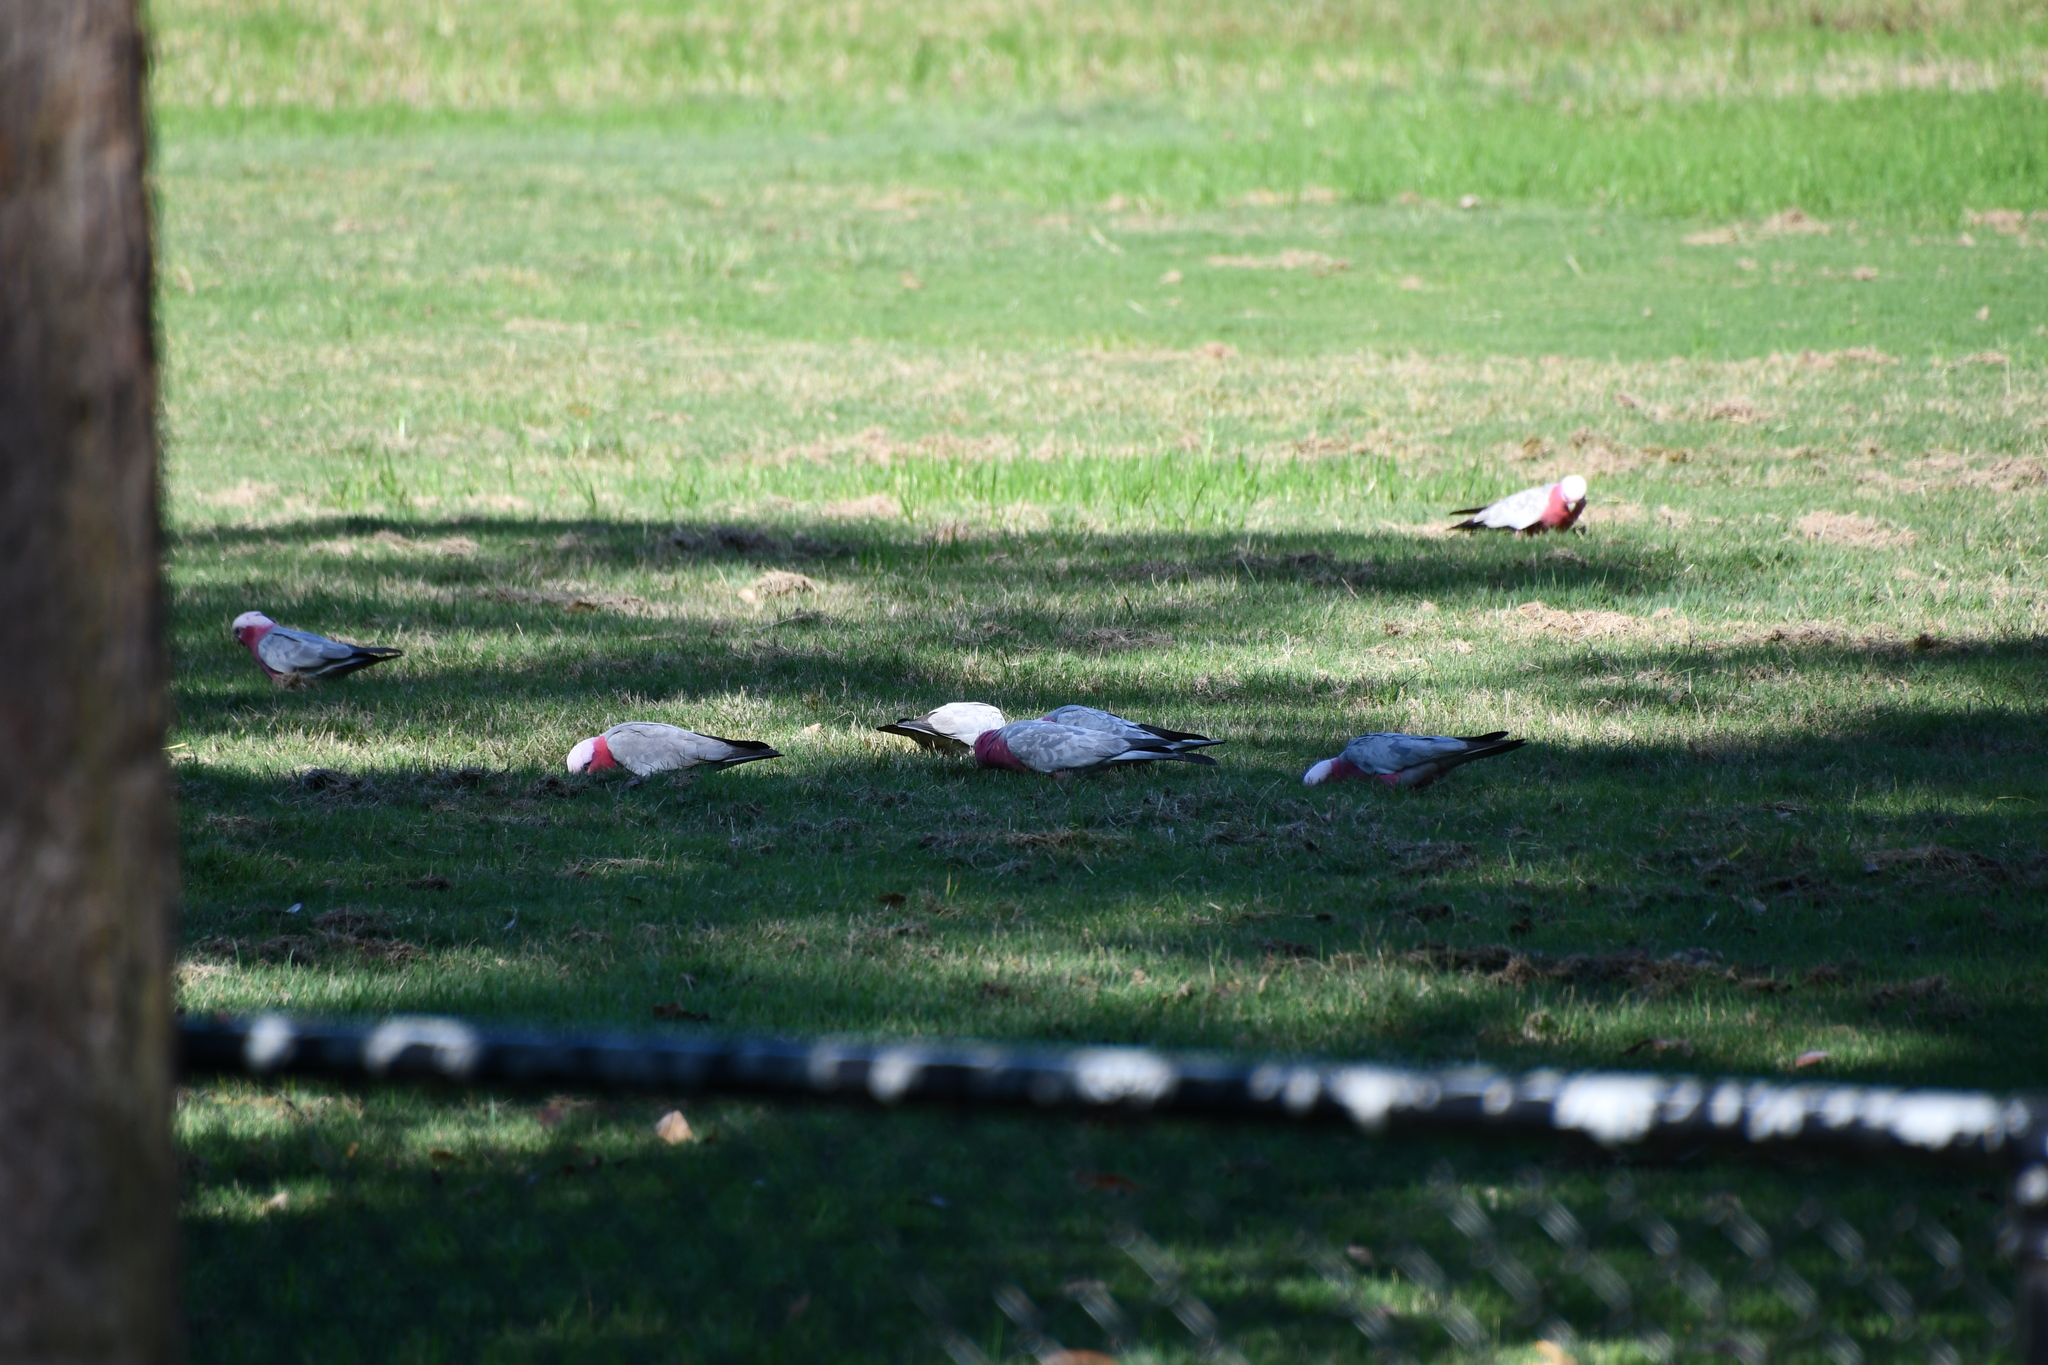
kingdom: Animalia
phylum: Chordata
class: Aves
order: Psittaciformes
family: Psittacidae
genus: Eolophus
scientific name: Eolophus roseicapilla
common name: Galah
